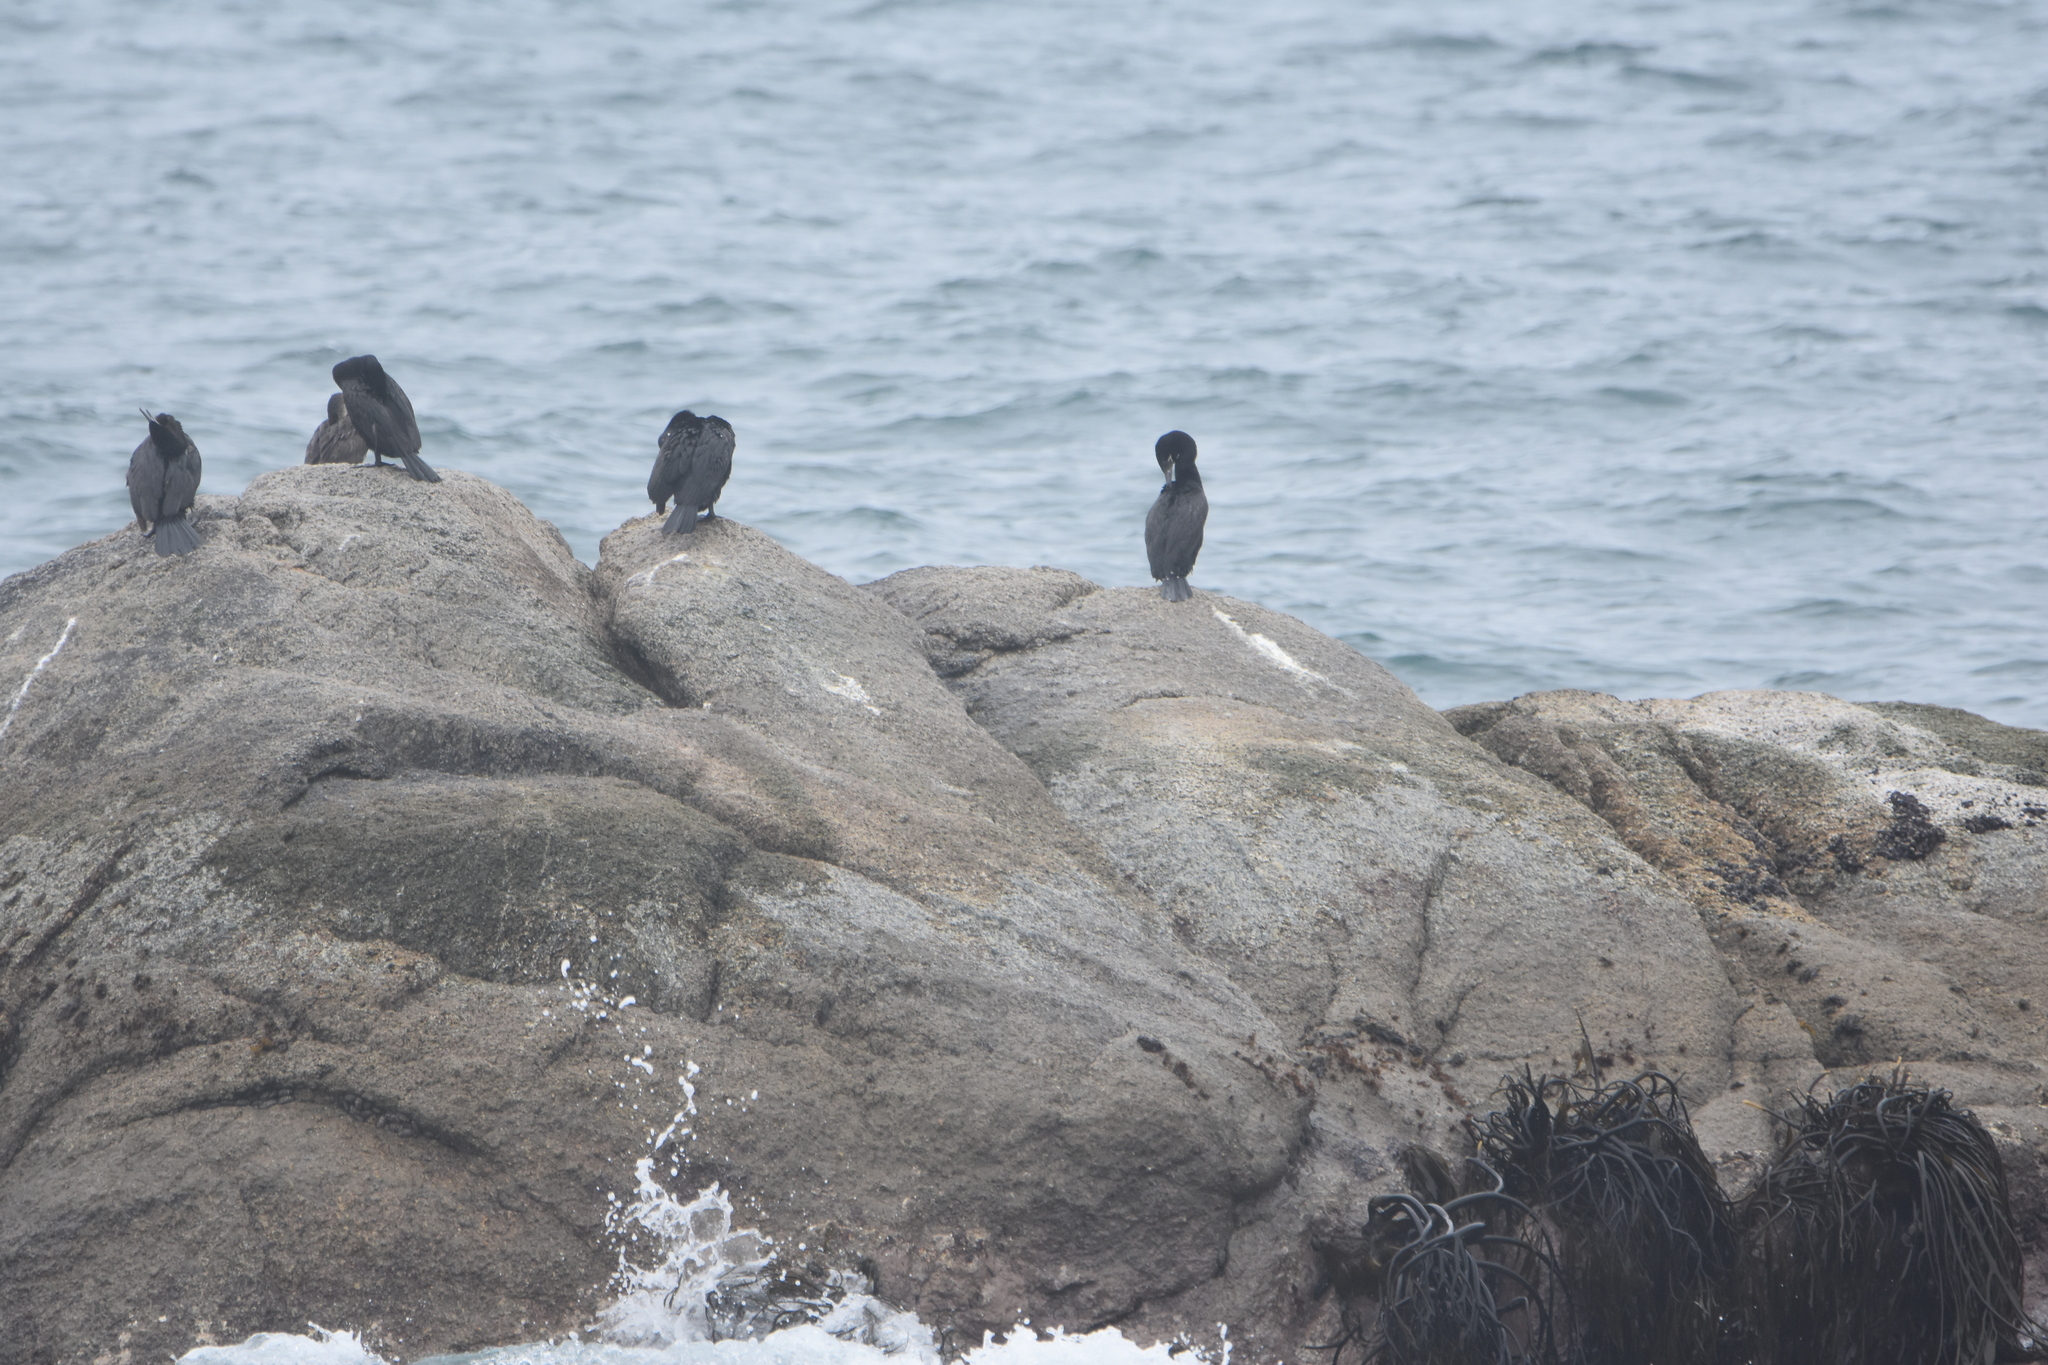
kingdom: Animalia
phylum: Chordata
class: Aves
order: Suliformes
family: Phalacrocoracidae
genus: Phalacrocorax
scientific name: Phalacrocorax brasilianus
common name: Neotropic cormorant
